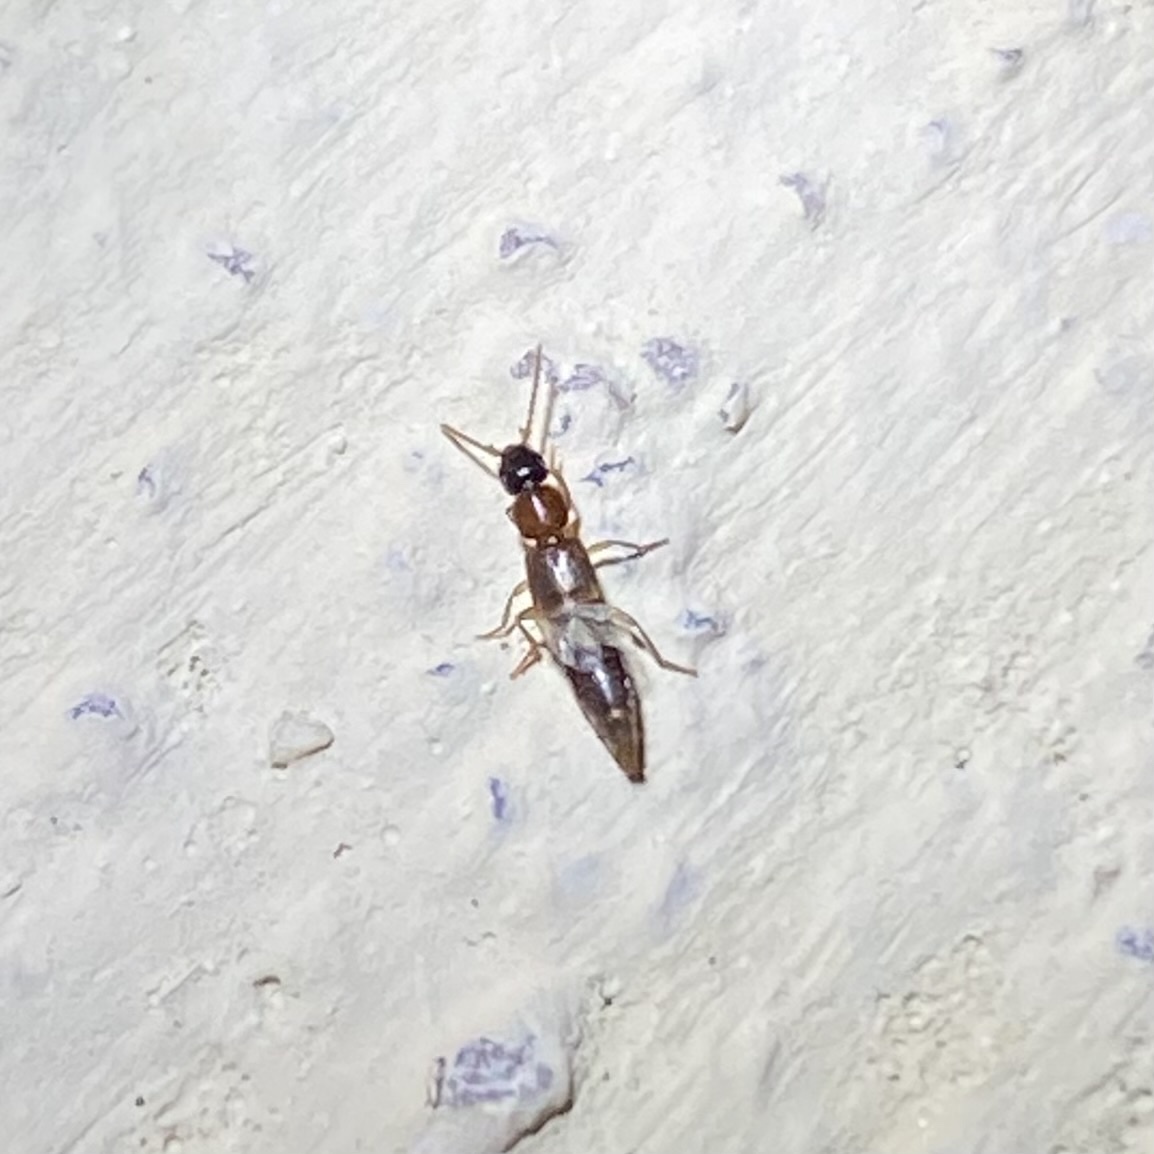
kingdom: Animalia
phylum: Arthropoda
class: Insecta
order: Coleoptera
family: Staphylinidae
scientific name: Staphylinidae
